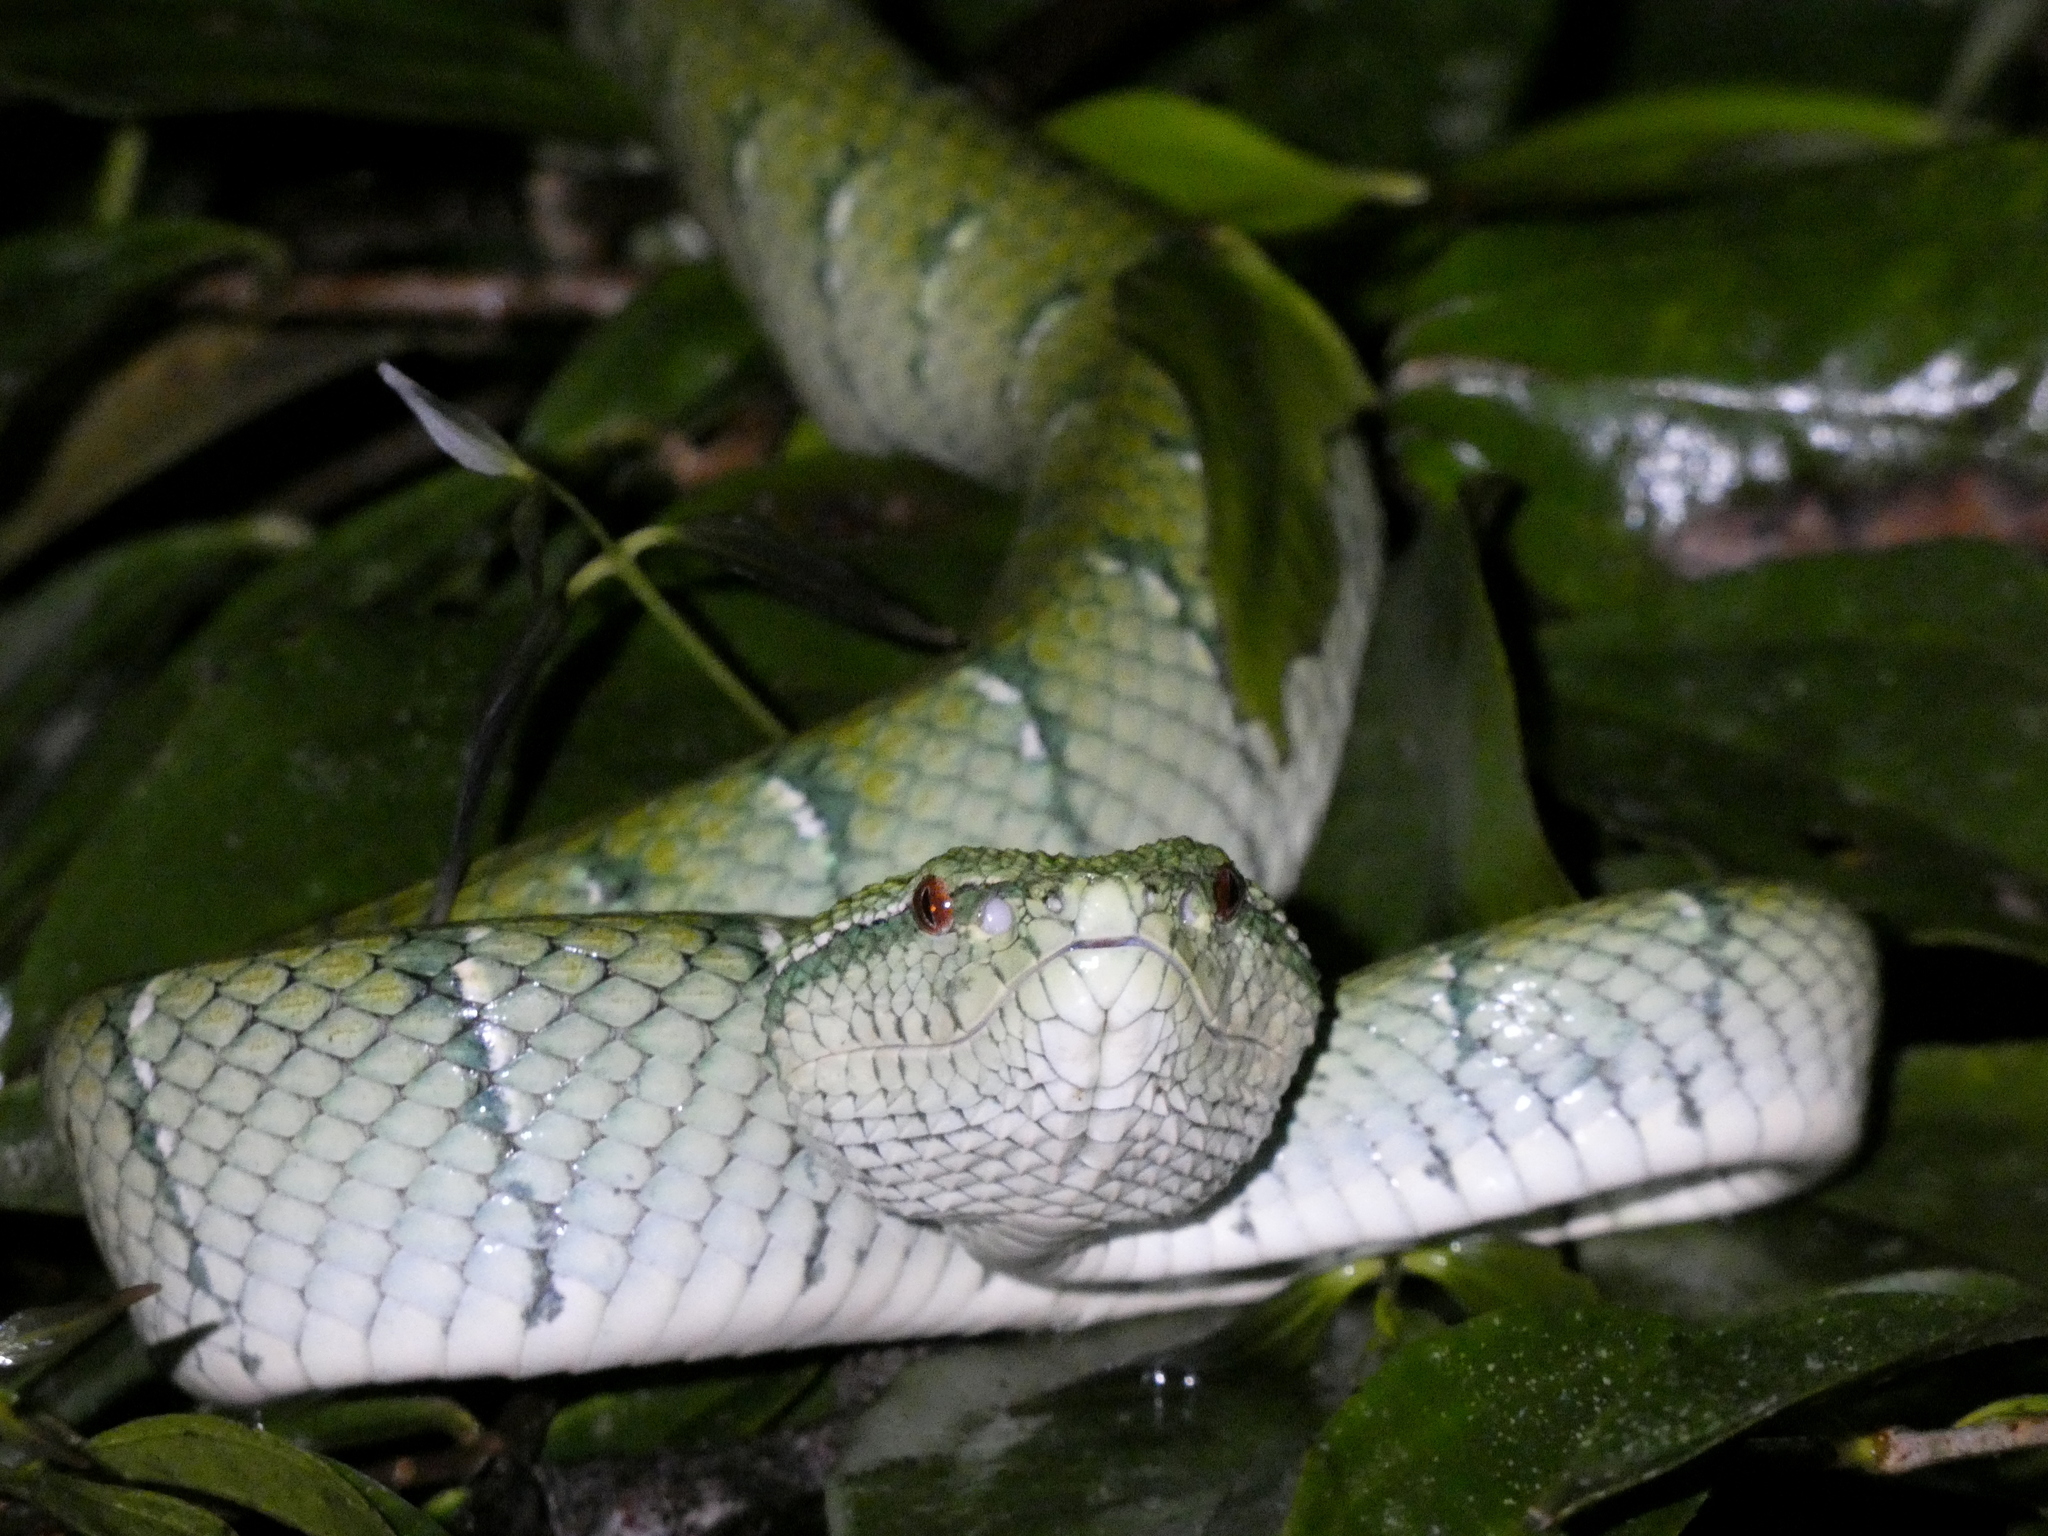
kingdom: Animalia
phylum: Chordata
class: Squamata
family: Viperidae
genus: Tropidolaemus
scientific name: Tropidolaemus subannulatus
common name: North philippine temple pitviper
